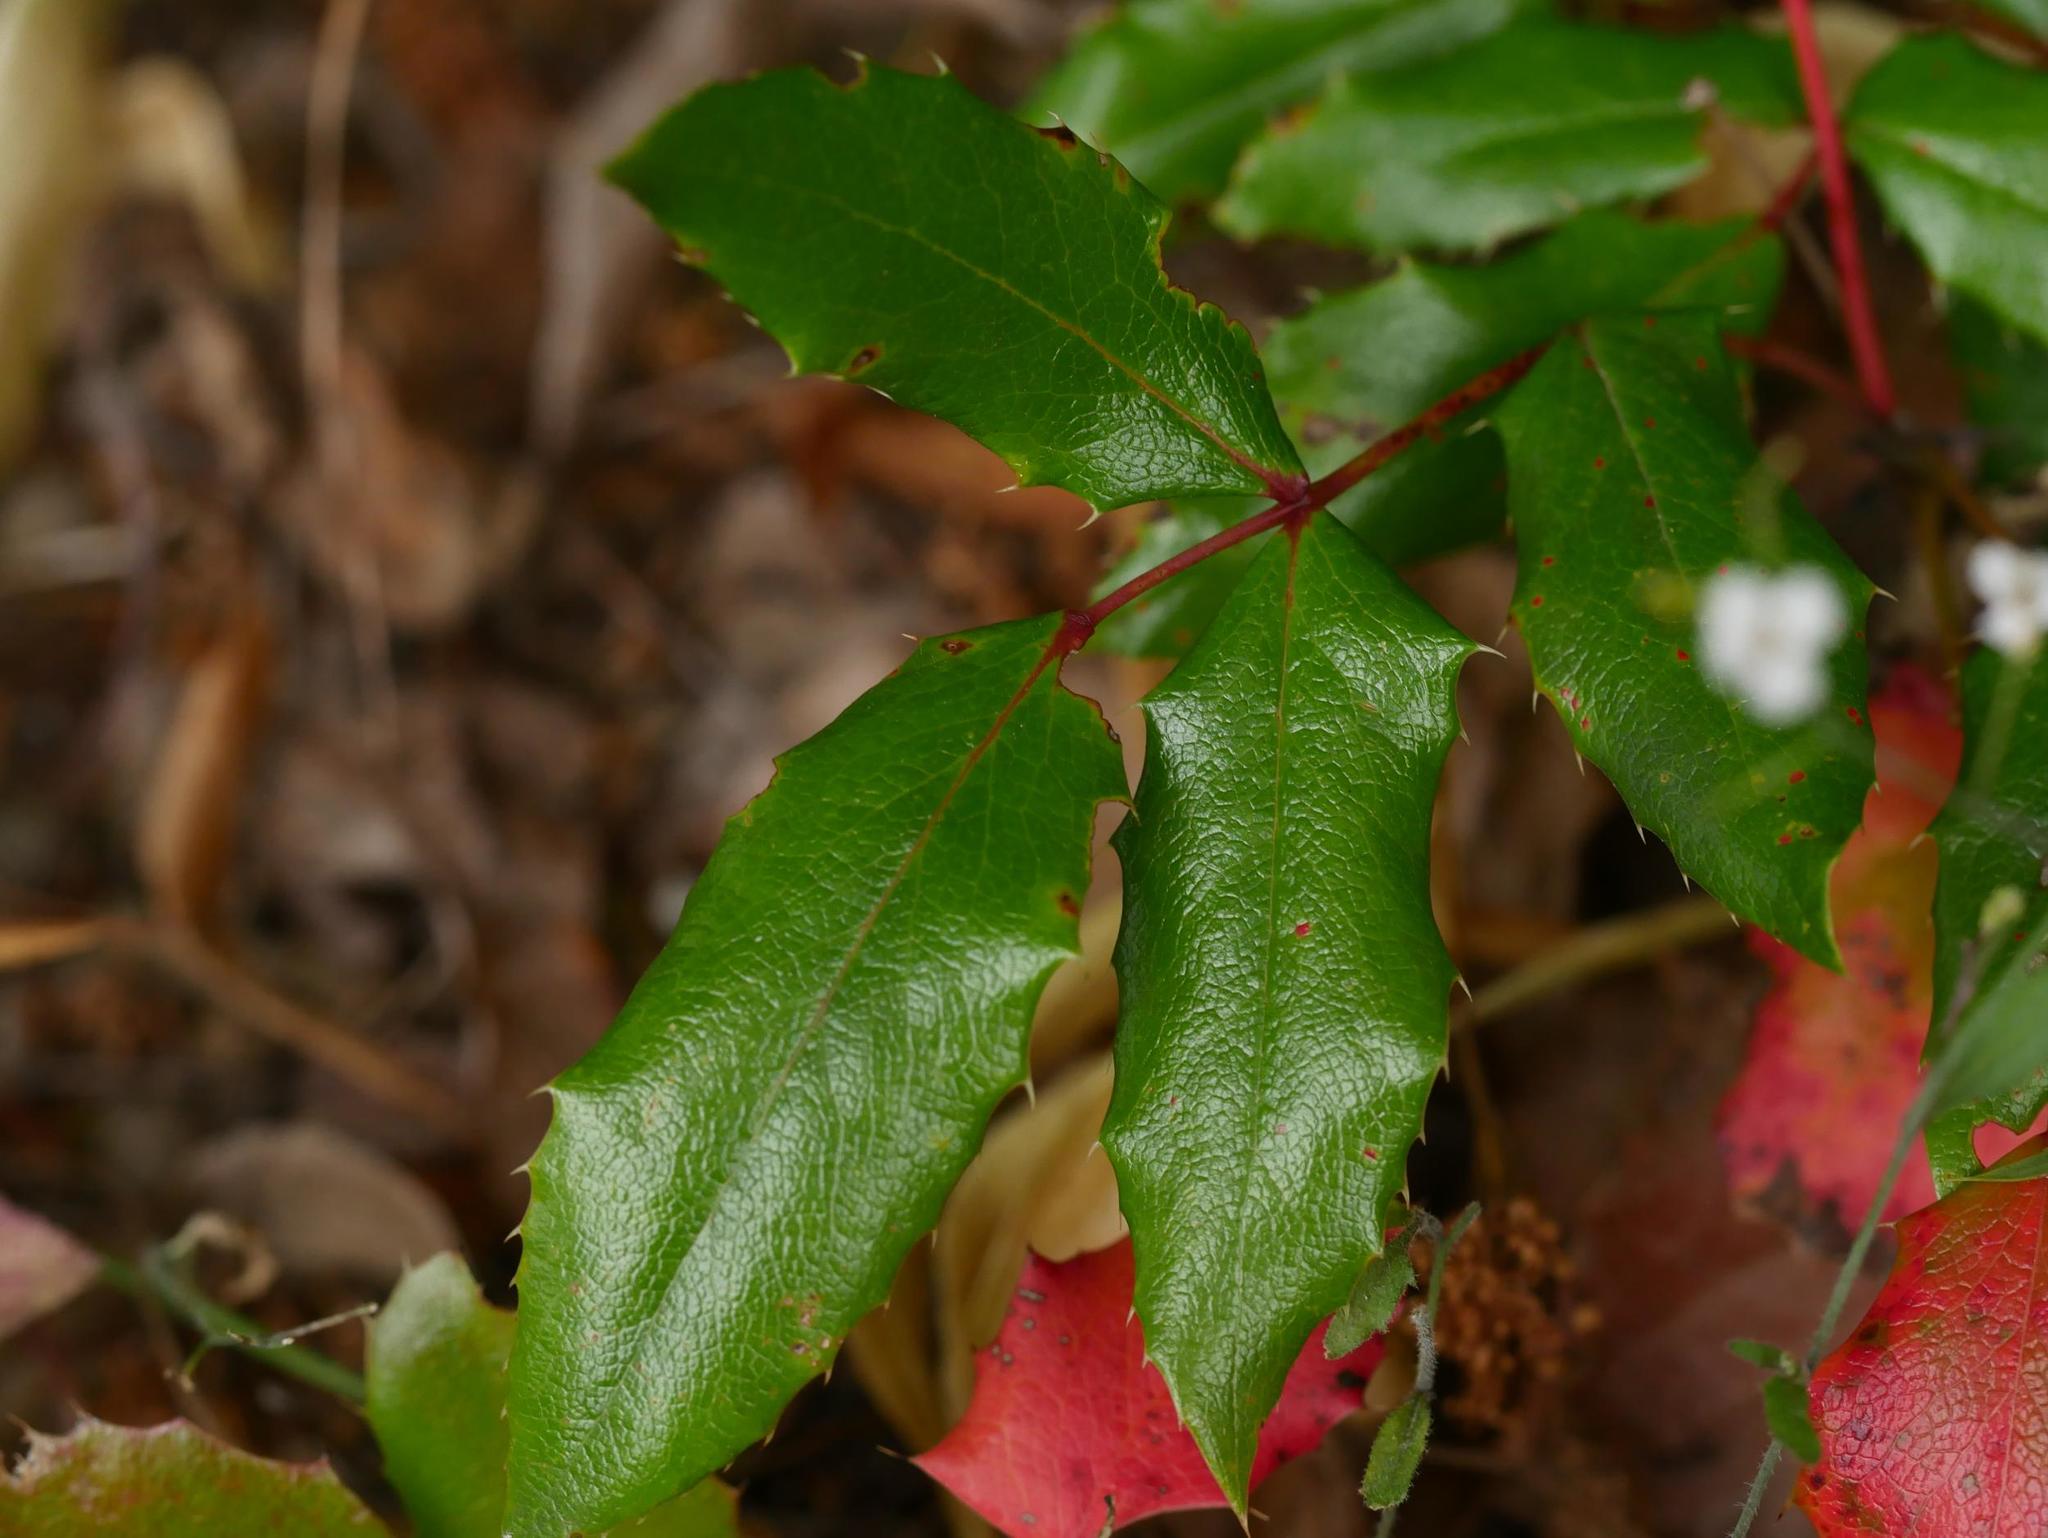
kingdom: Plantae
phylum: Tracheophyta
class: Magnoliopsida
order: Ranunculales
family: Berberidaceae
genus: Mahonia
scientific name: Mahonia aquifolium
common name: Oregon-grape
